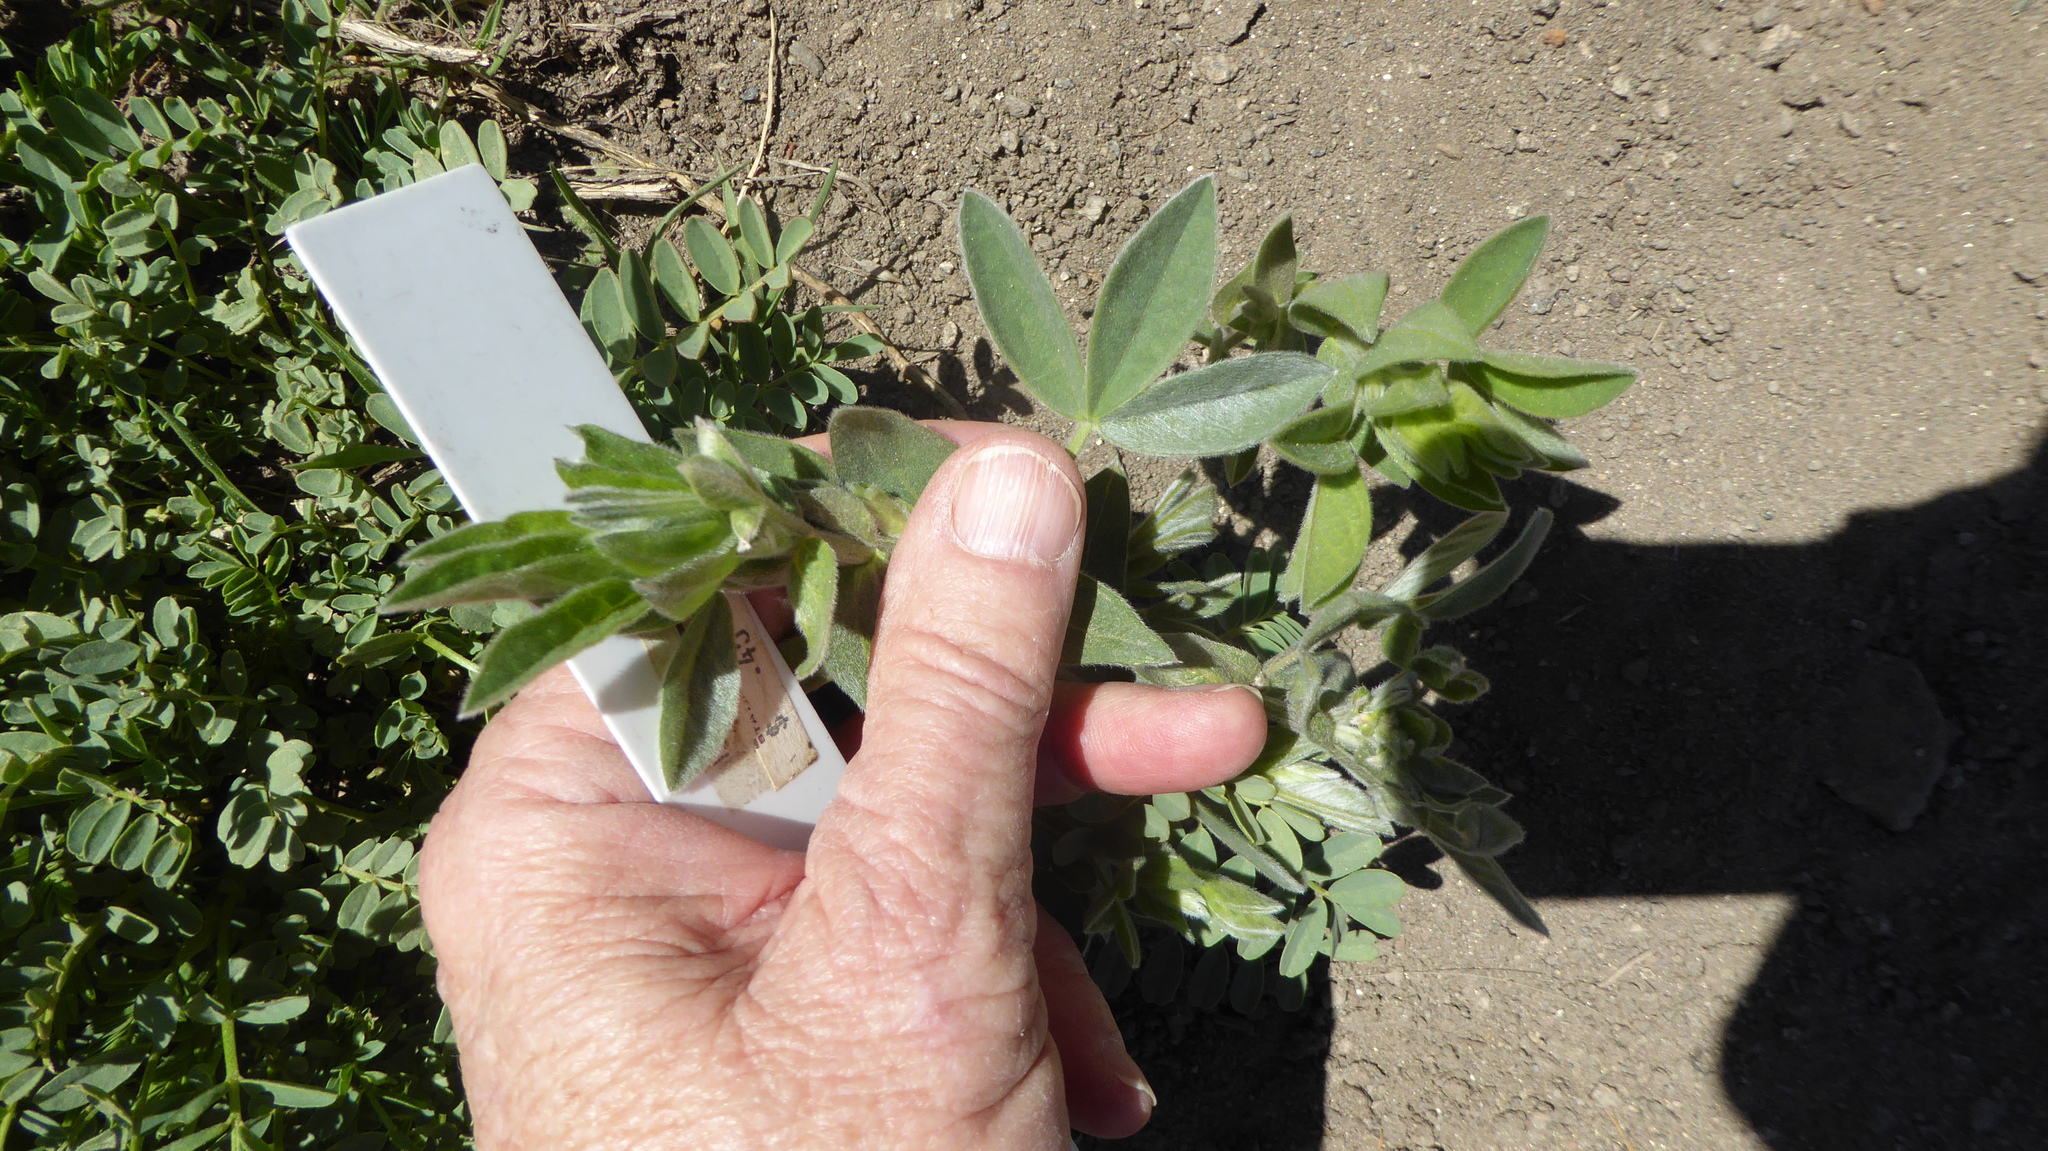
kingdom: Plantae
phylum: Tracheophyta
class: Magnoliopsida
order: Fabales
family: Fabaceae
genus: Thermopsis
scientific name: Thermopsis californica
